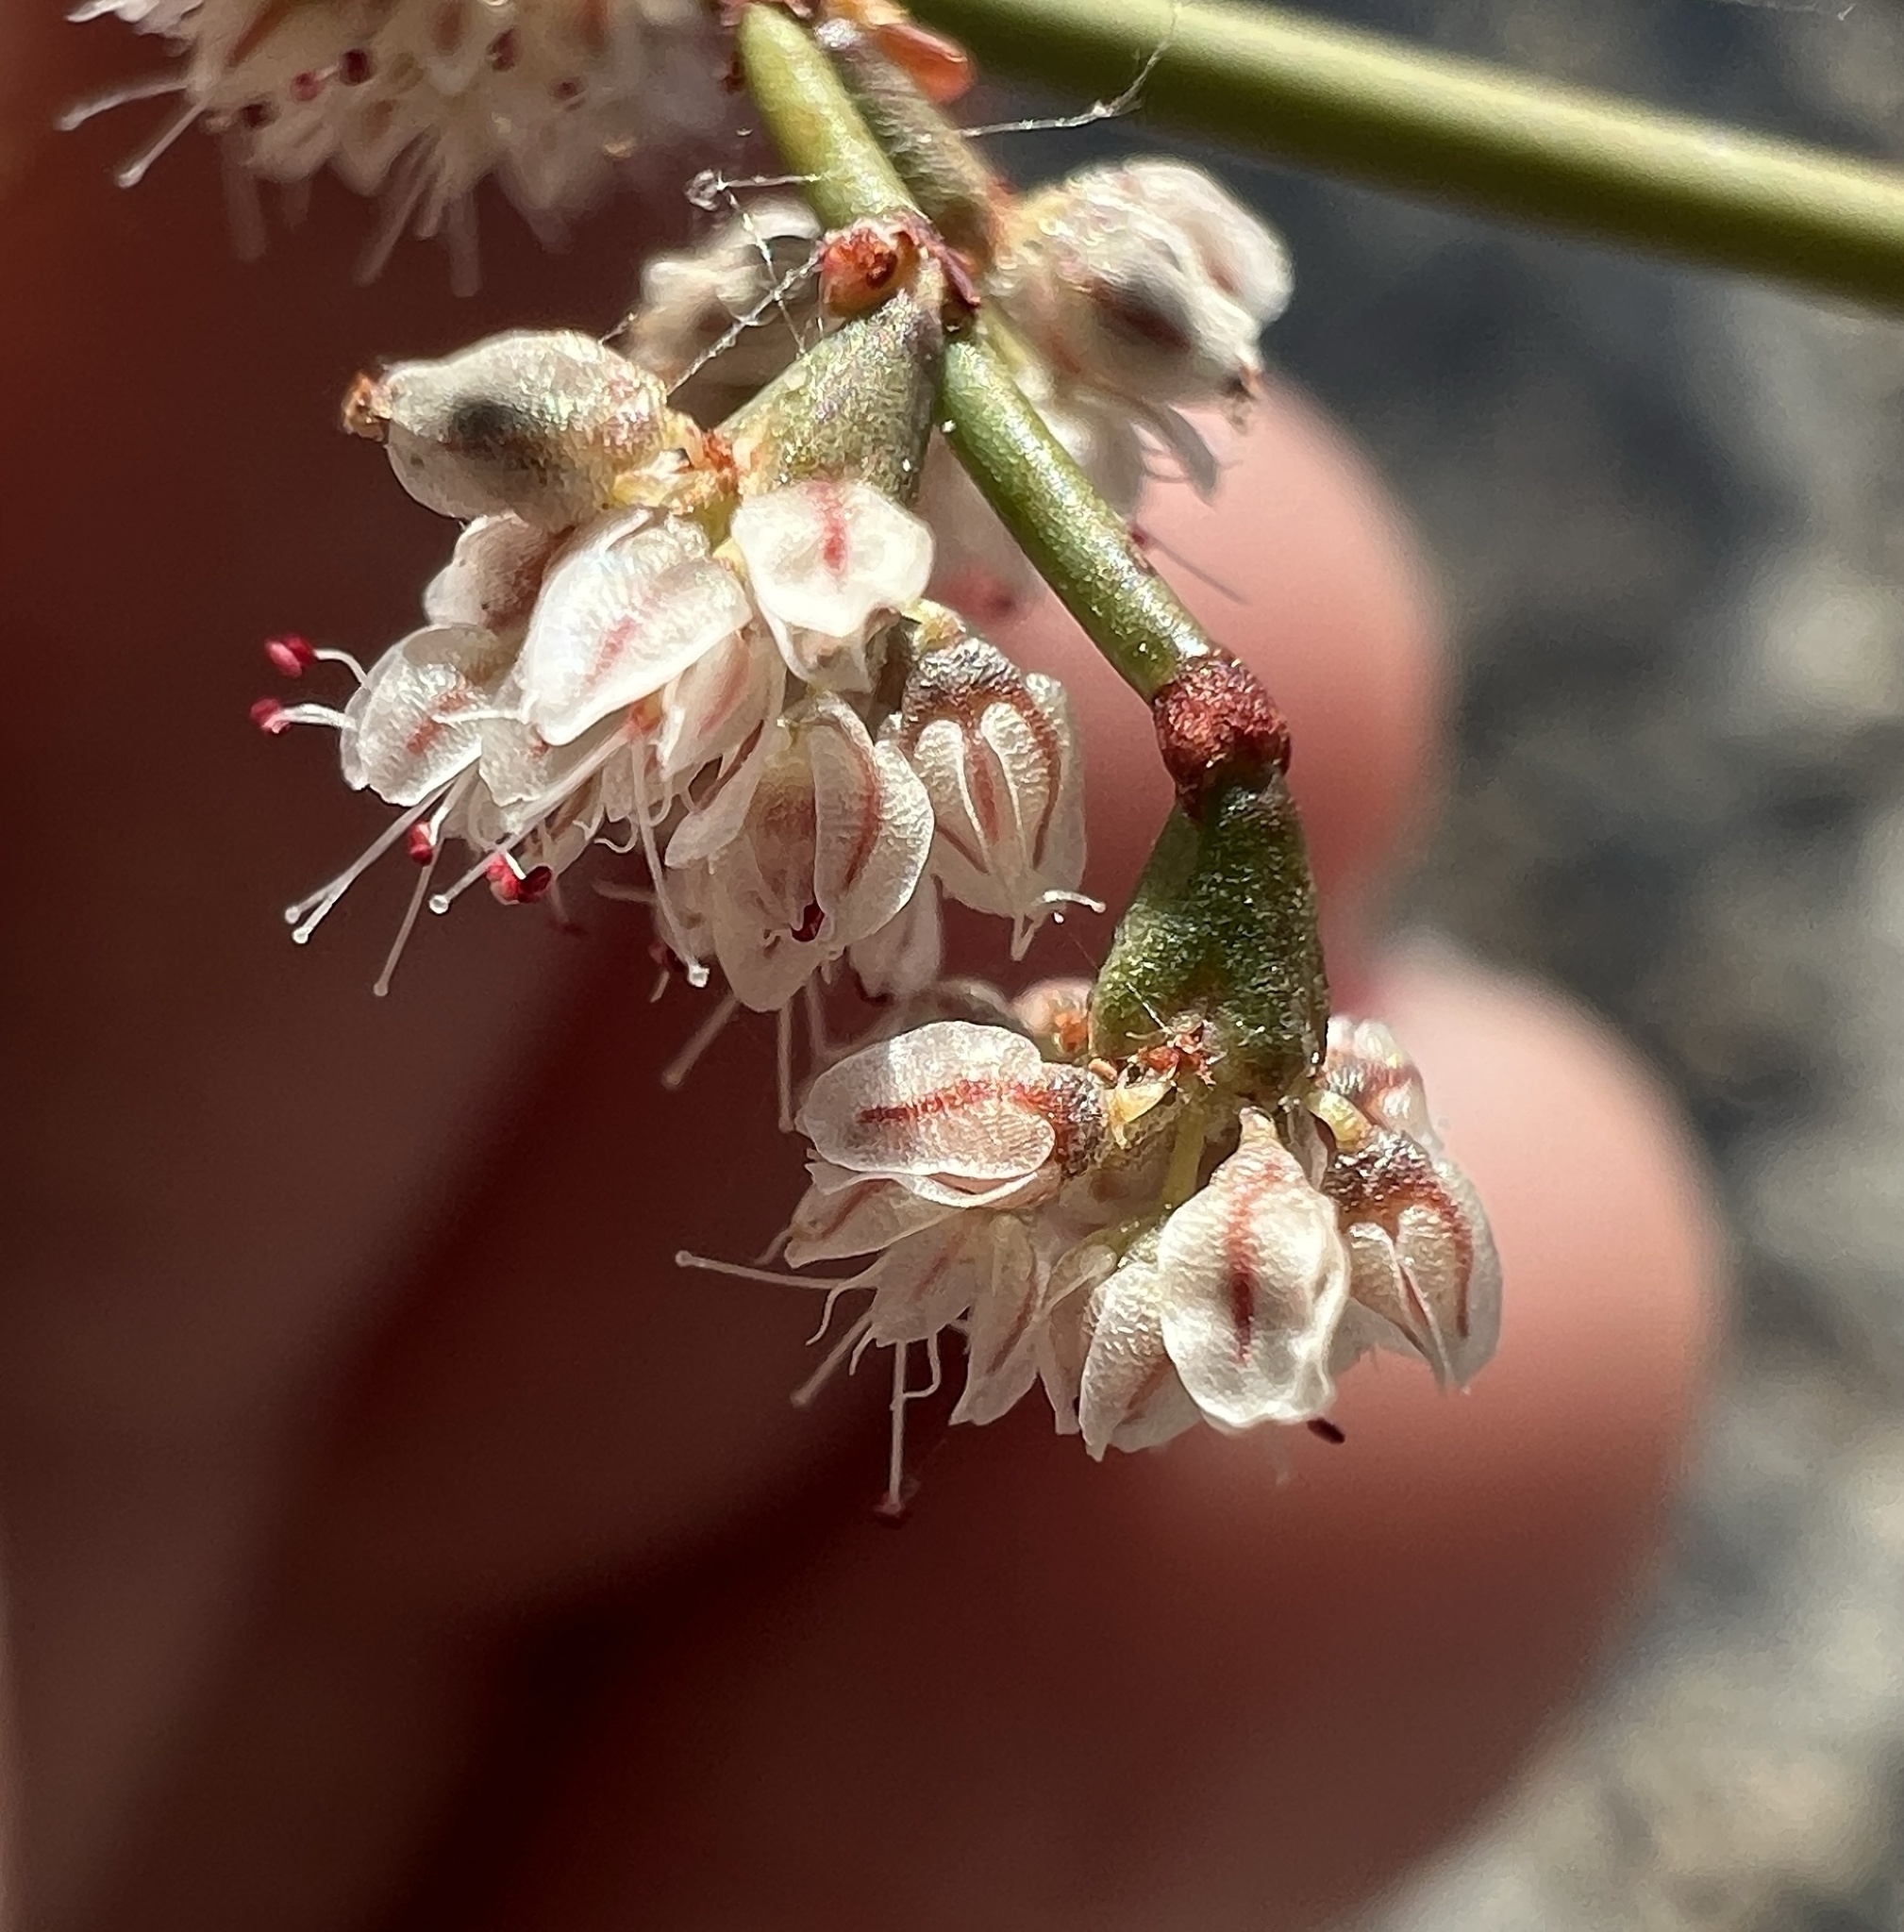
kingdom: Plantae
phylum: Tracheophyta
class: Magnoliopsida
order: Caryophyllales
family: Polygonaceae
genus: Eriogonum
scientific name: Eriogonum deflexum
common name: Skeleton-weed
